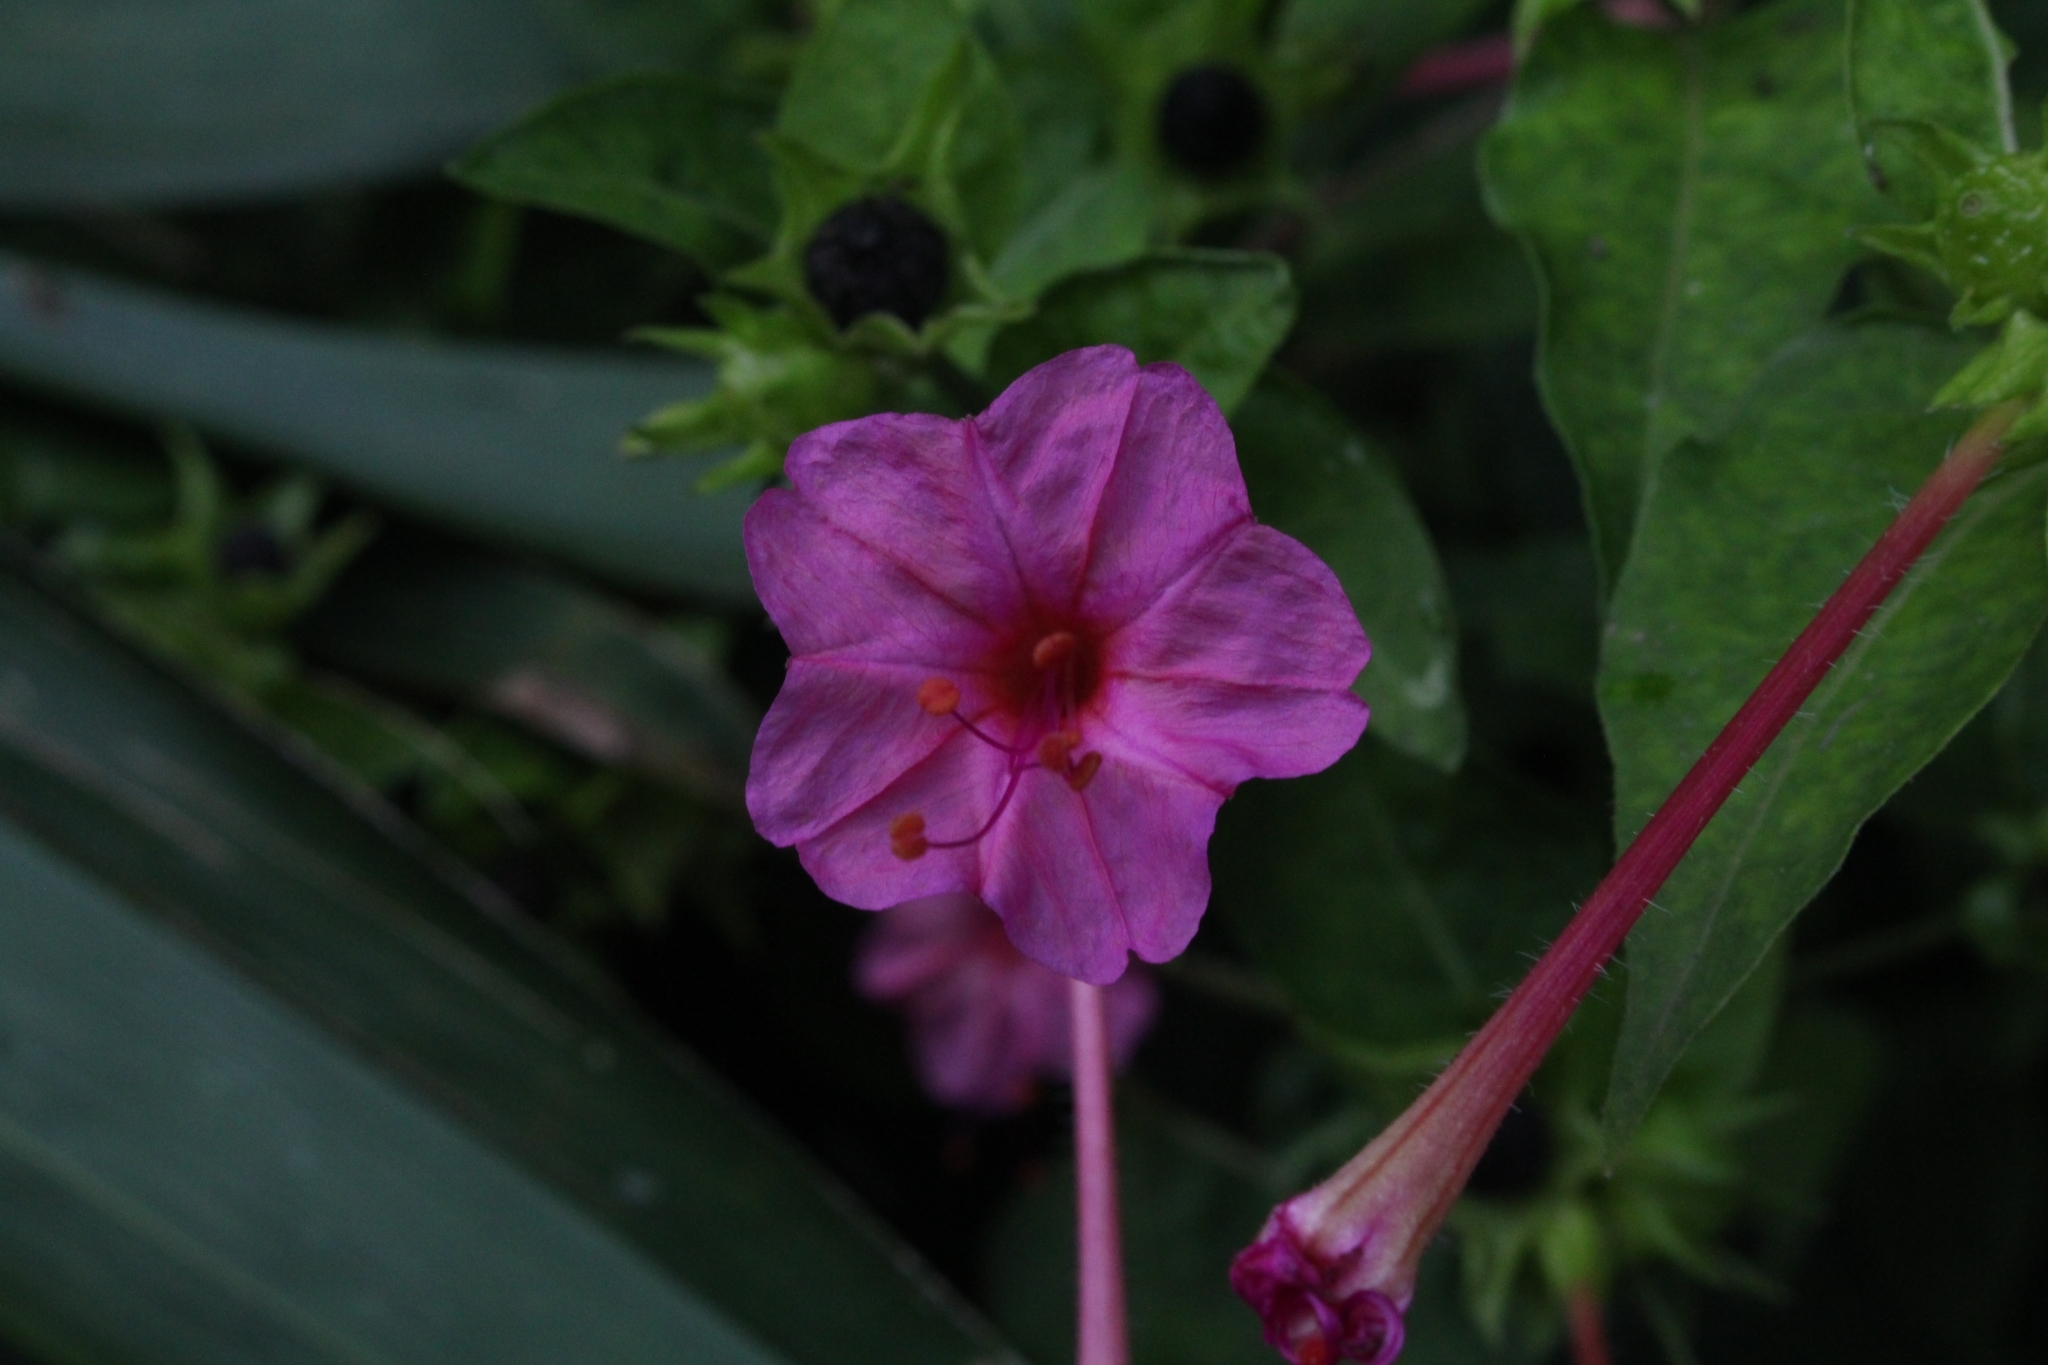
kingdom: Plantae
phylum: Tracheophyta
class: Magnoliopsida
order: Caryophyllales
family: Nyctaginaceae
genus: Mirabilis
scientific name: Mirabilis jalapa
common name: Marvel-of-peru
